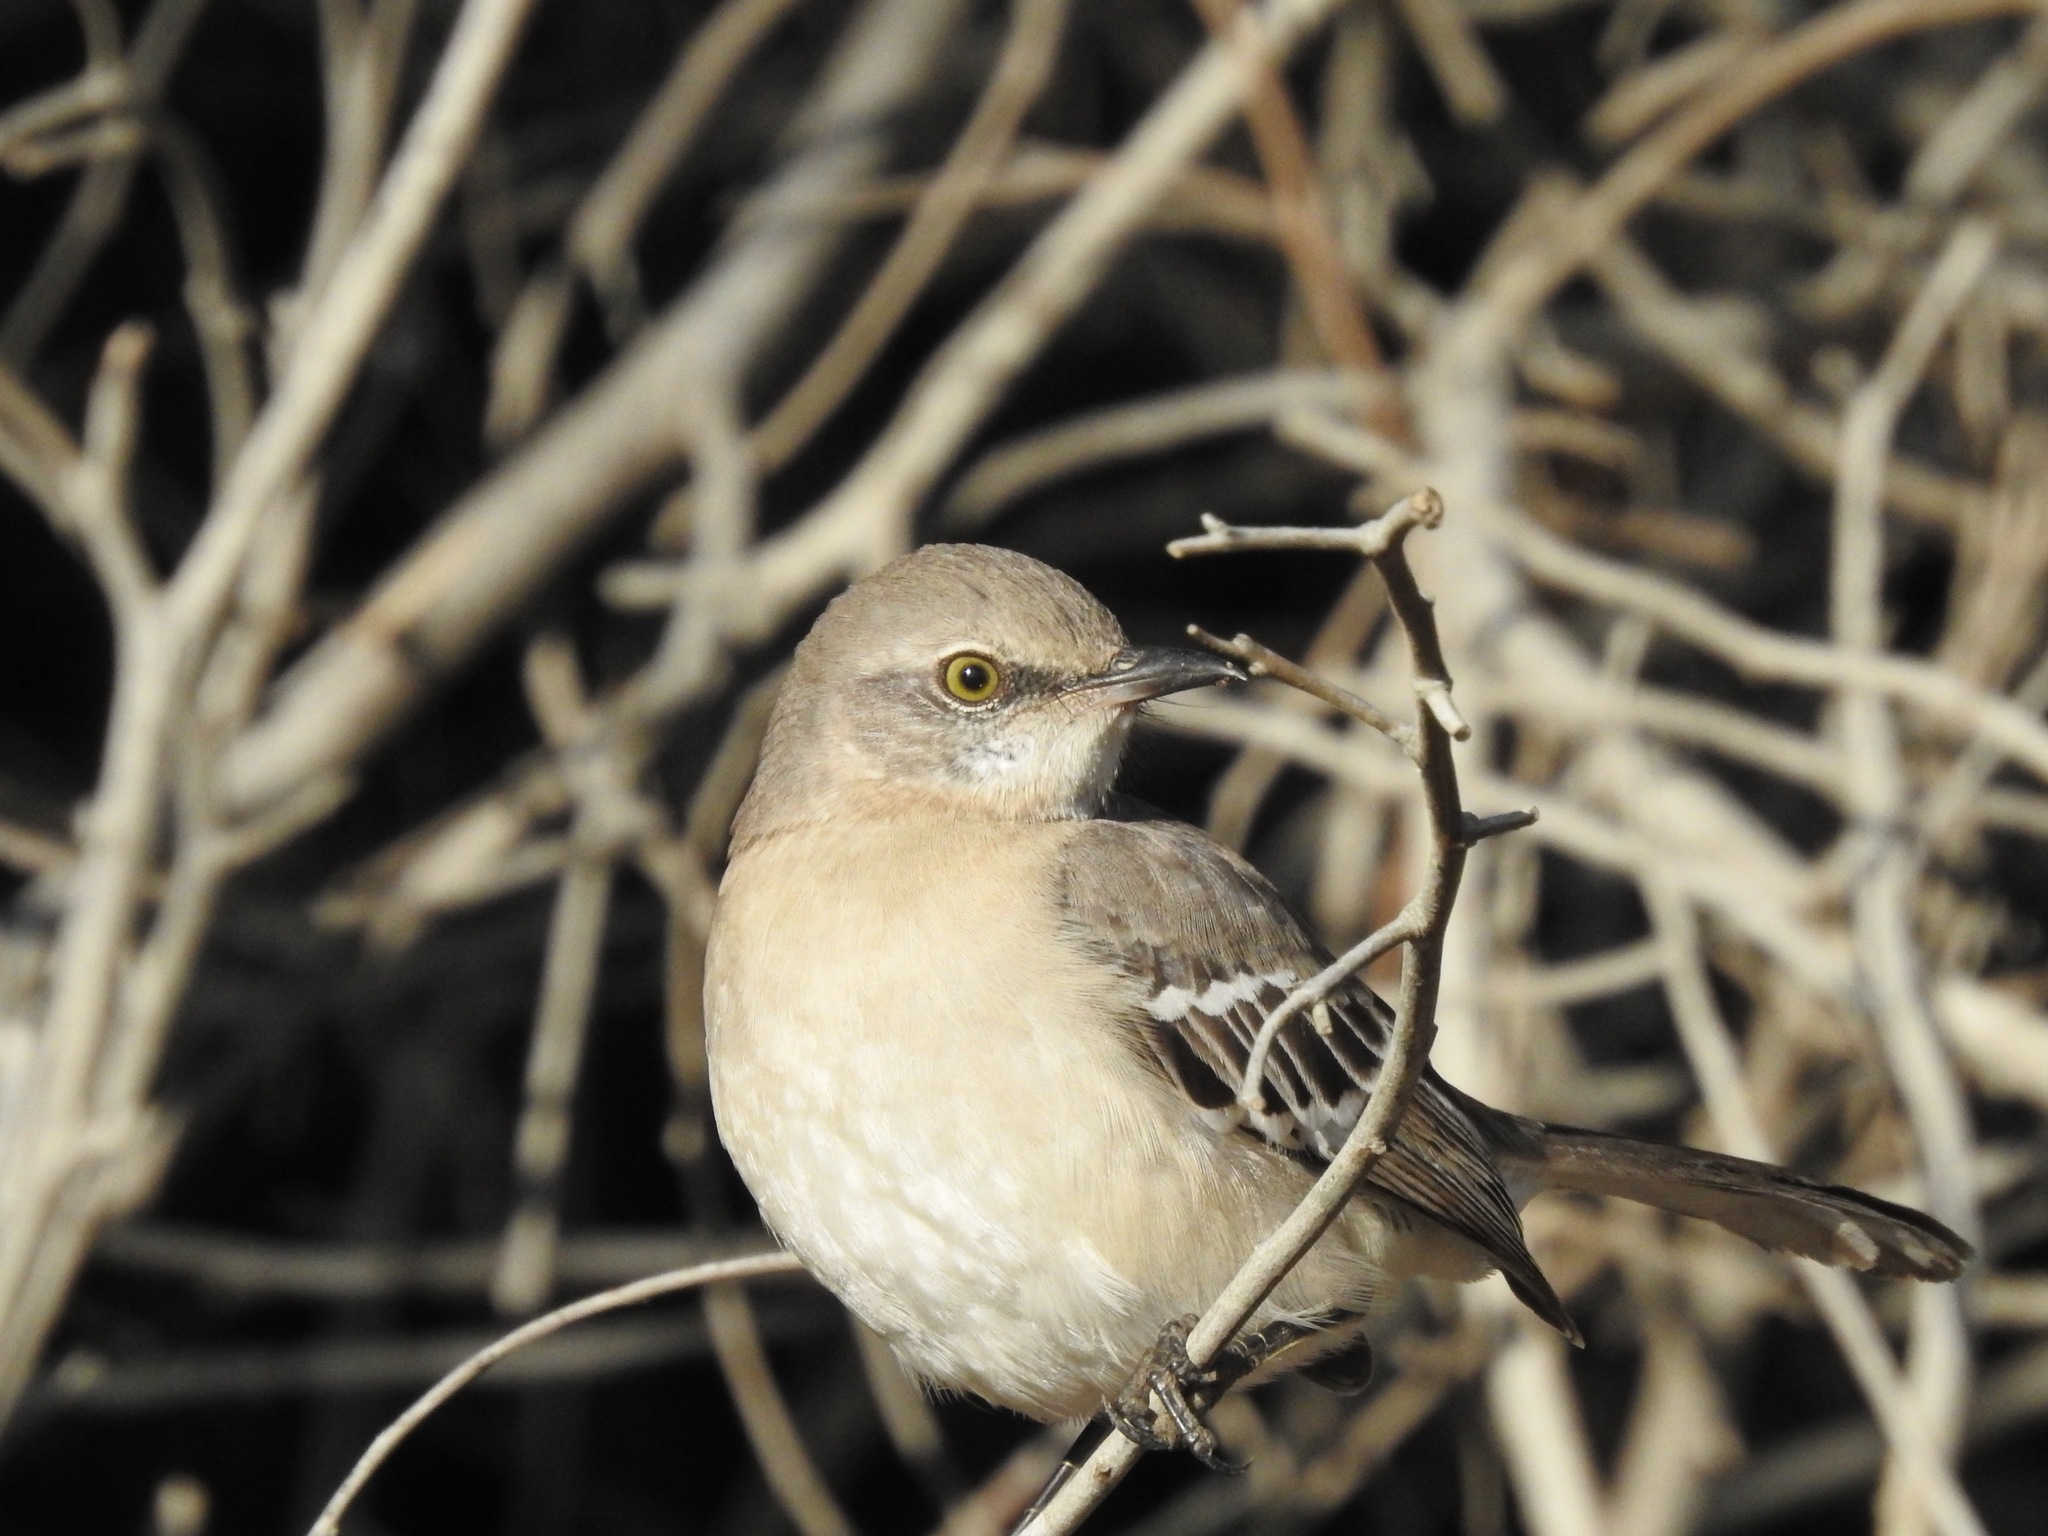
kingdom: Animalia
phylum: Chordata
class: Aves
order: Passeriformes
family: Mimidae
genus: Mimus
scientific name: Mimus polyglottos
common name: Northern mockingbird
